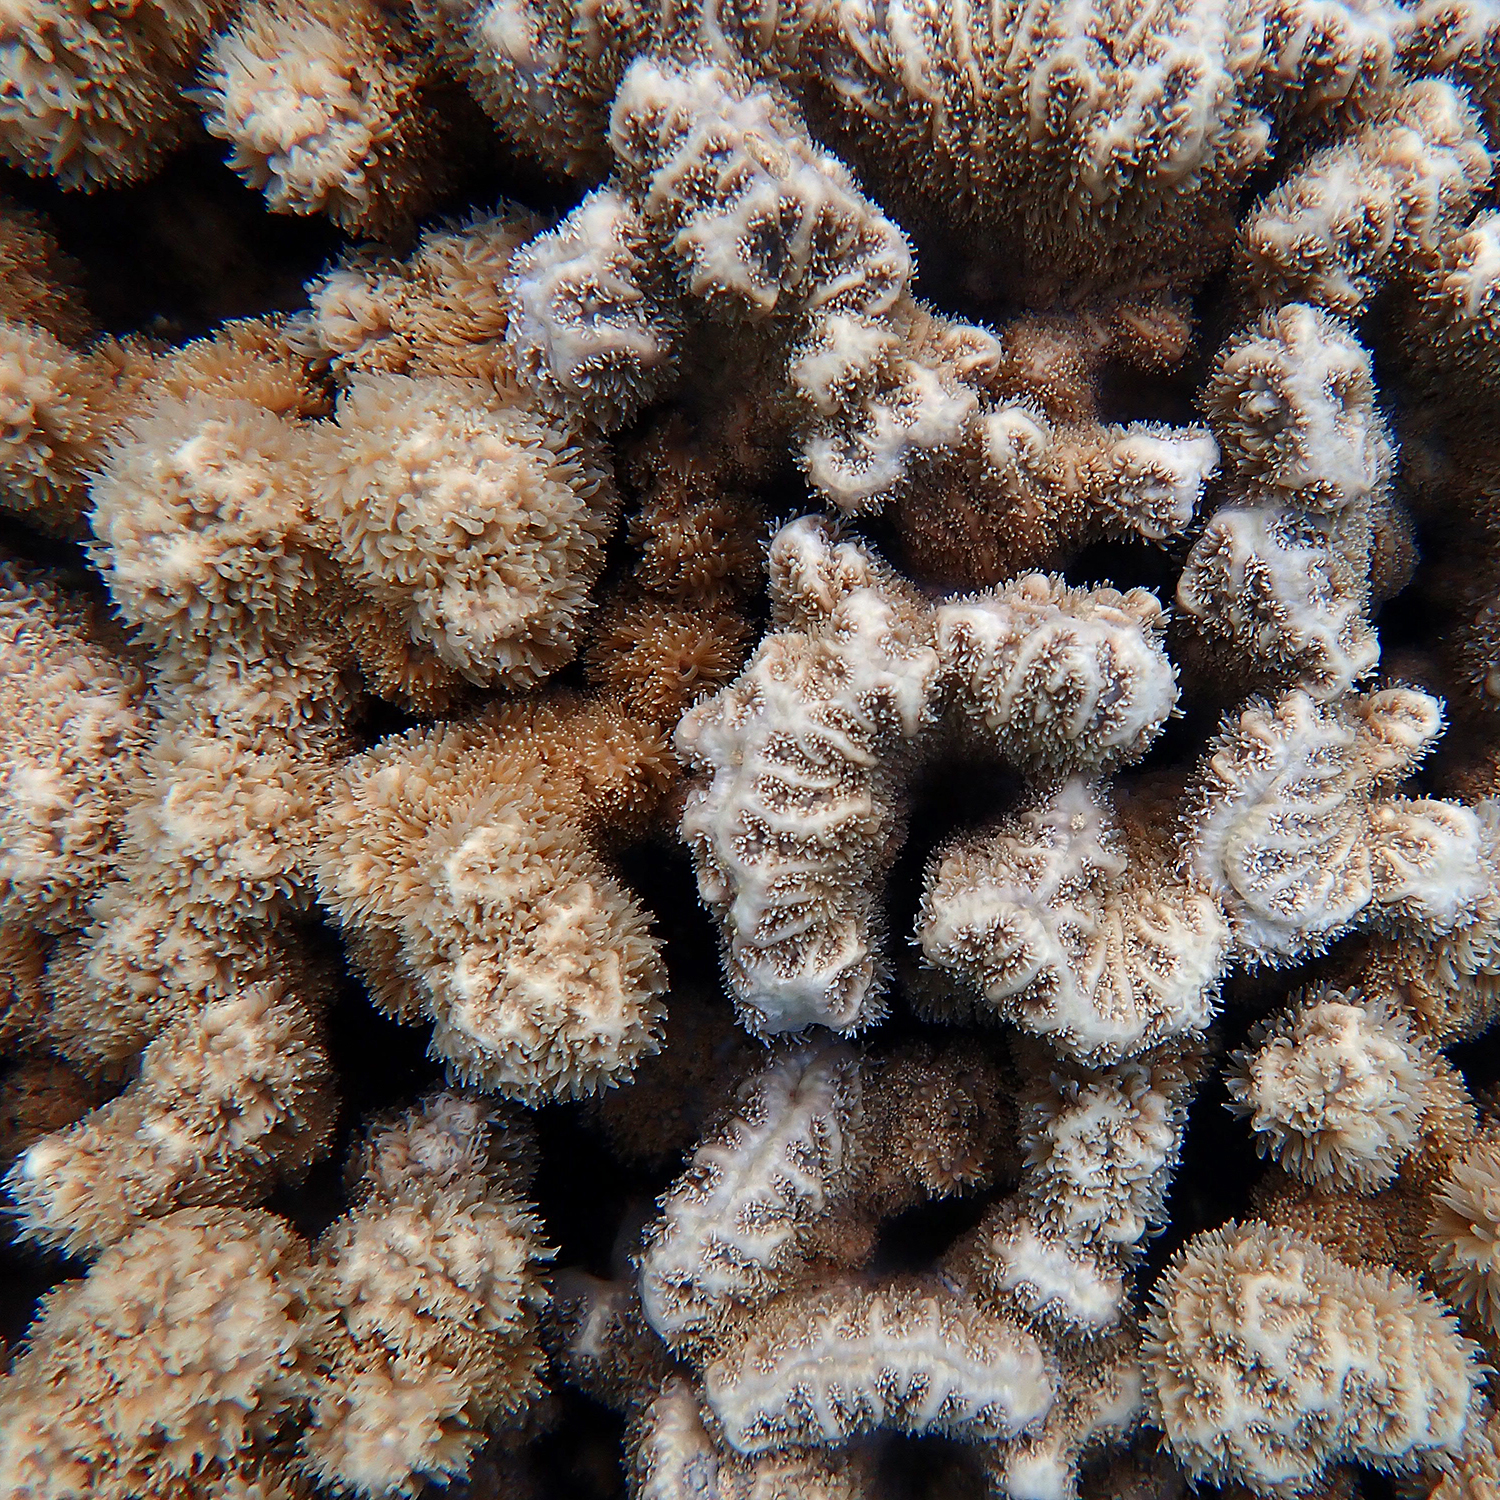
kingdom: Animalia
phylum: Cnidaria
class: Anthozoa
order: Scleractinia
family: Merulinidae
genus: Hydnophora
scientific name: Hydnophora pilosa
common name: Spine coral
